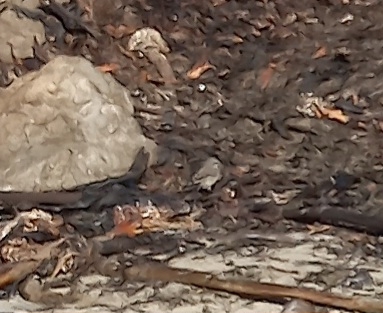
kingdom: Animalia
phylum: Chordata
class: Aves
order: Passeriformes
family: Motacillidae
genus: Motacilla
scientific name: Motacilla capensis
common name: Cape wagtail
